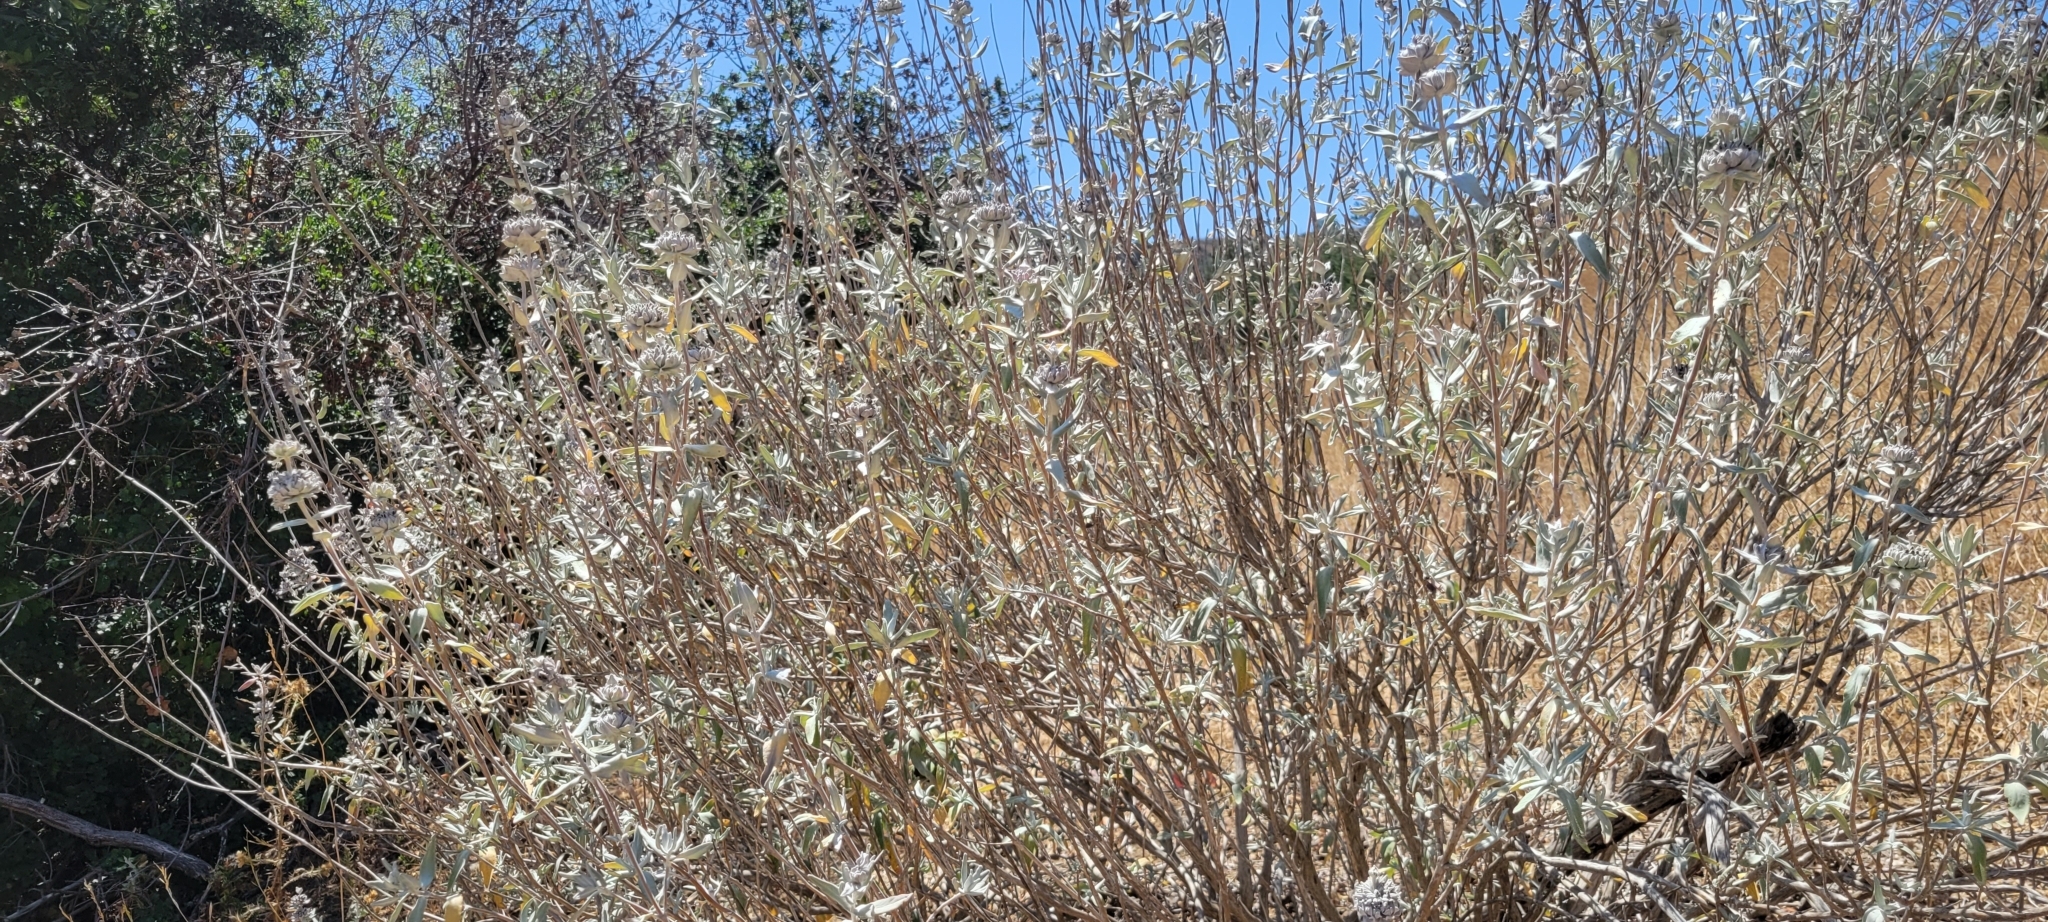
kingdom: Plantae
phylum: Tracheophyta
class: Magnoliopsida
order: Lamiales
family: Lamiaceae
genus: Salvia
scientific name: Salvia leucophylla
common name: Purple sage
